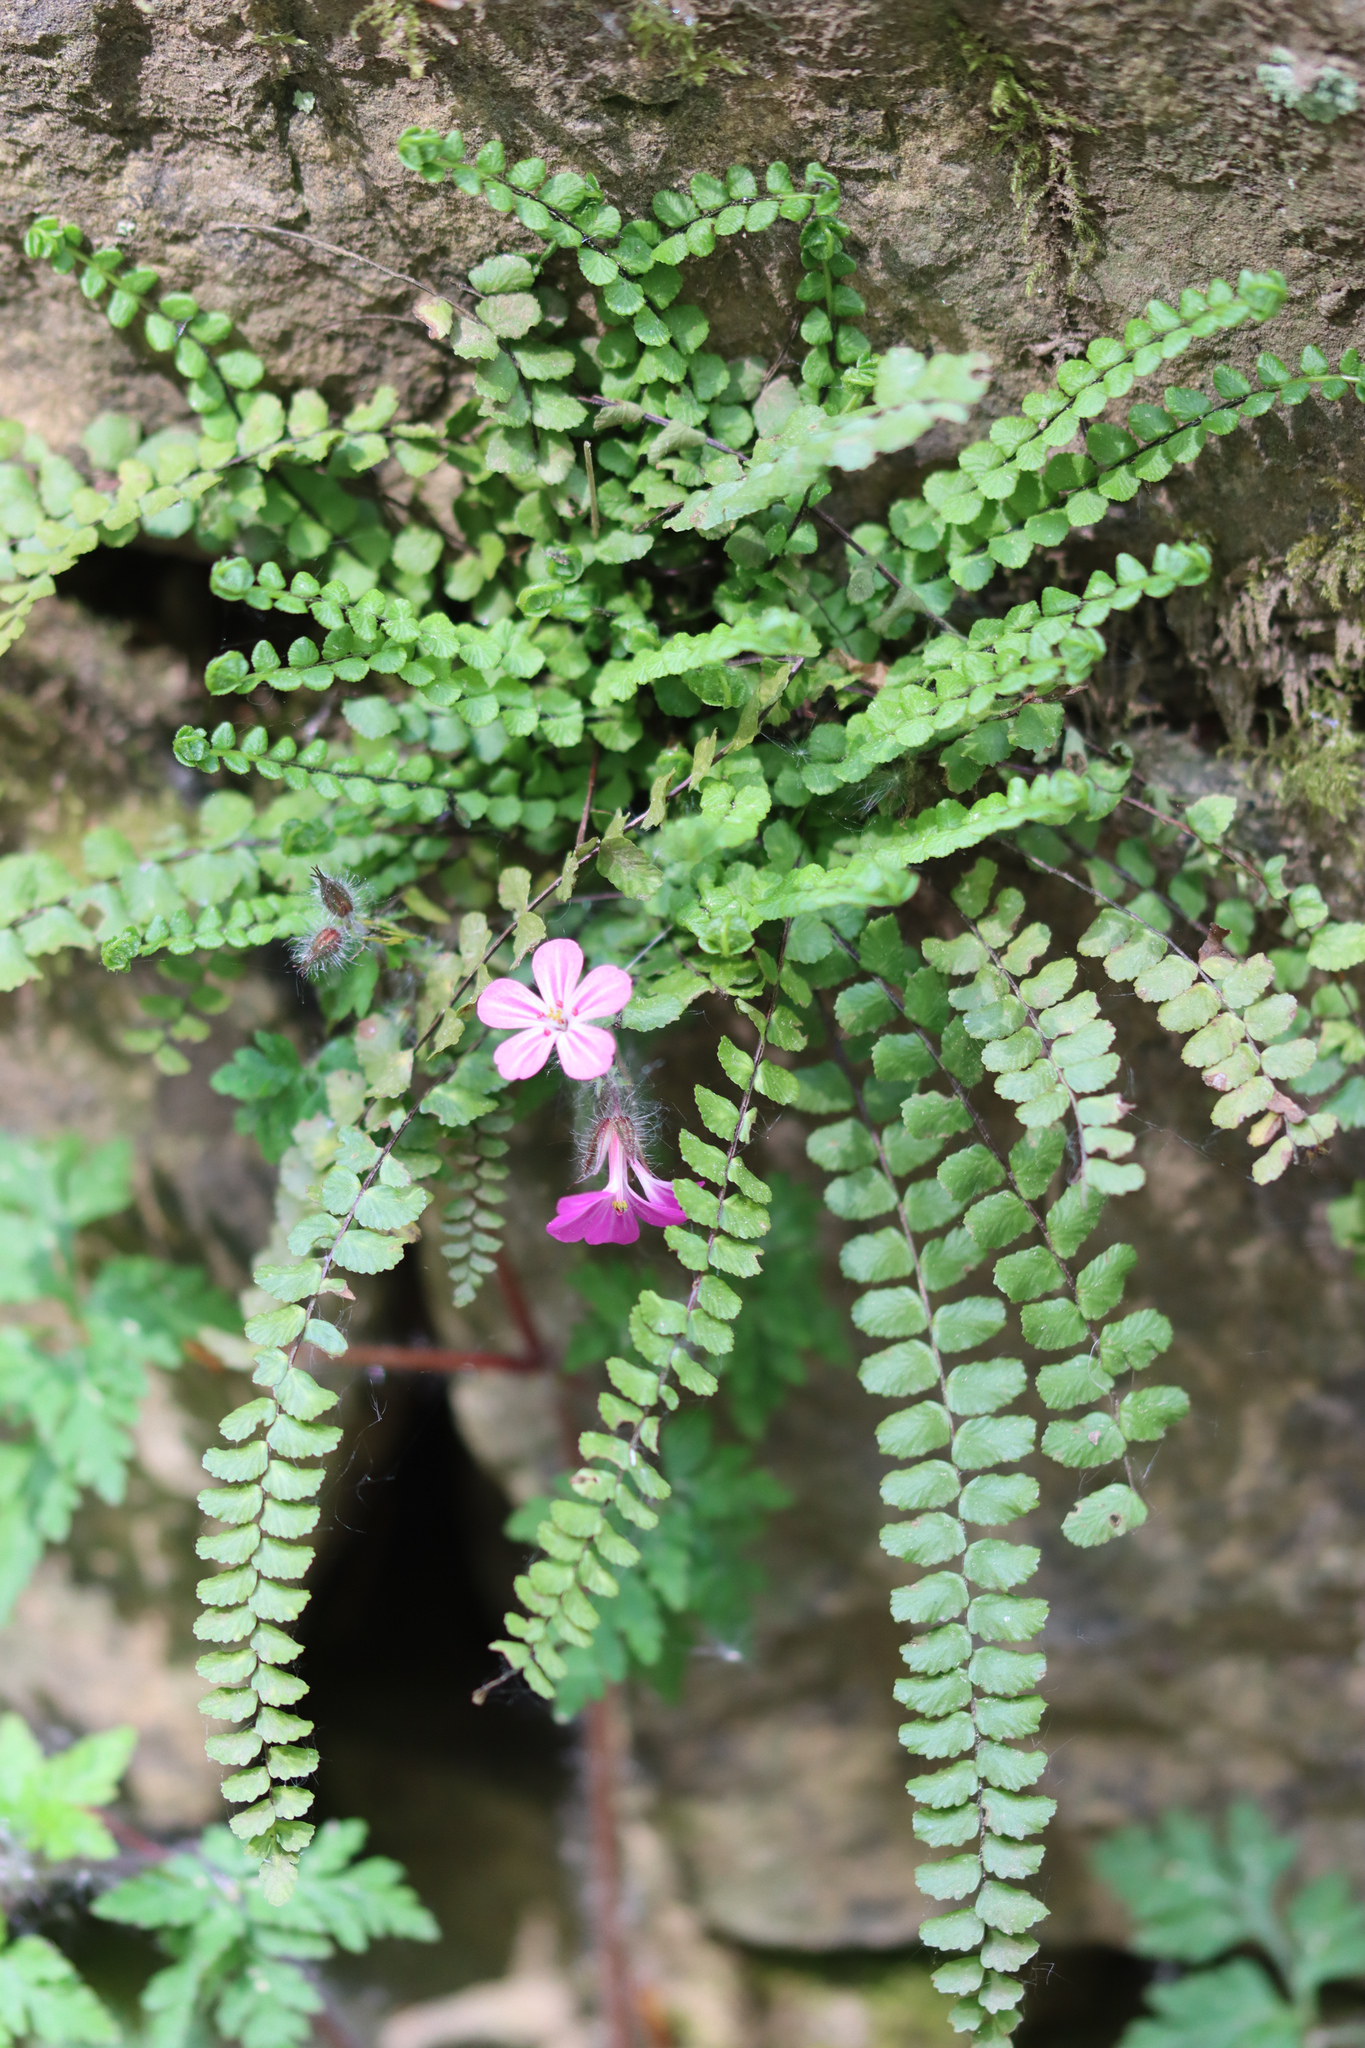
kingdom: Plantae
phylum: Tracheophyta
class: Polypodiopsida
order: Polypodiales
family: Aspleniaceae
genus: Asplenium
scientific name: Asplenium trichomanes
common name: Maidenhair spleenwort
